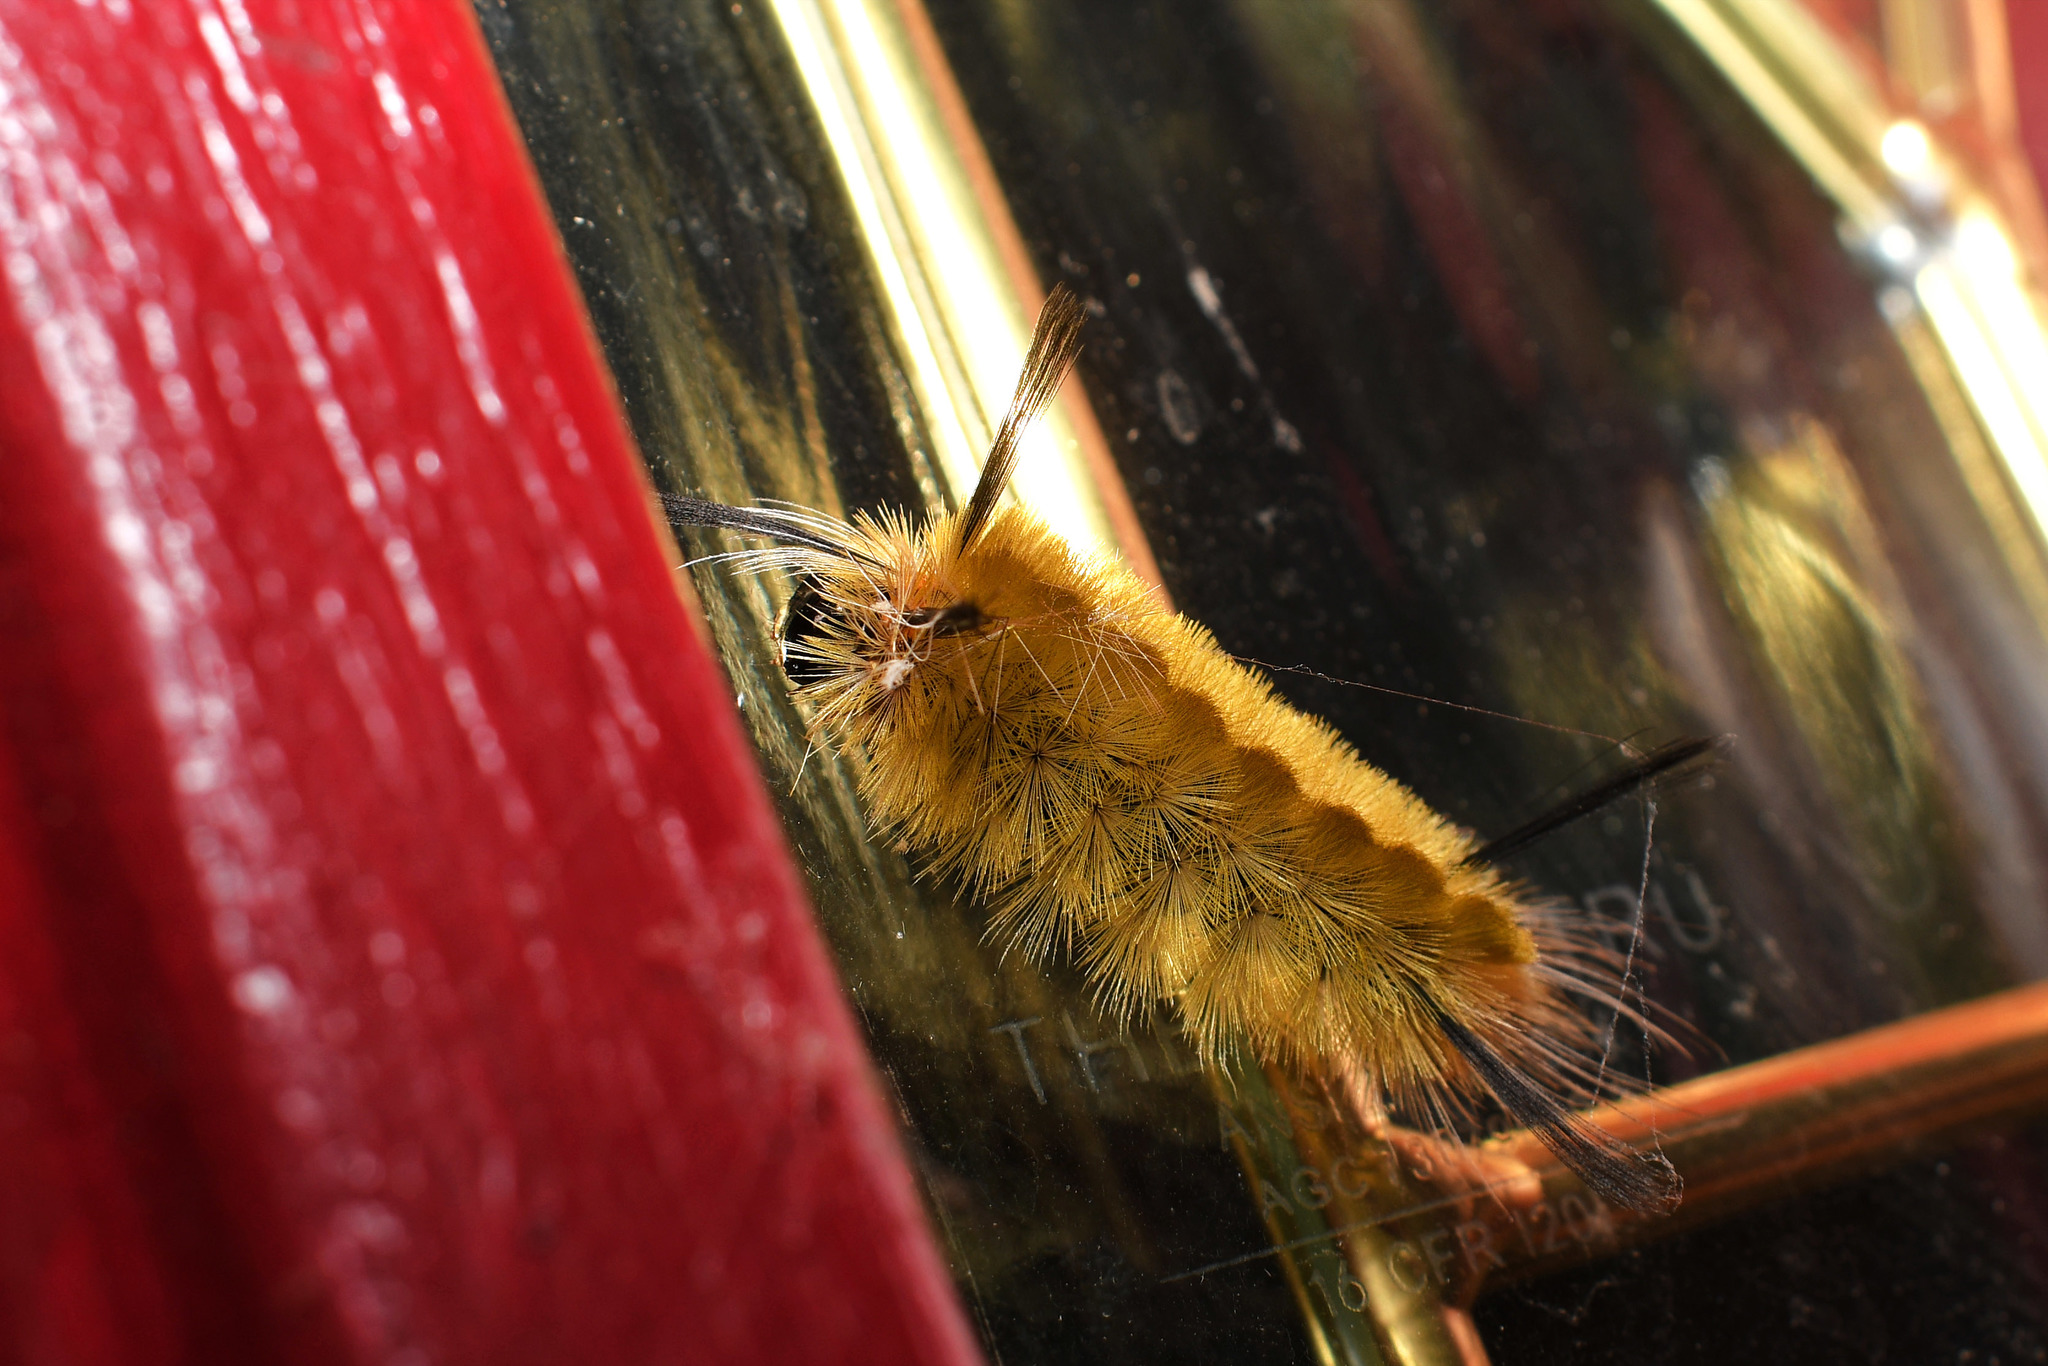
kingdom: Animalia
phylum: Arthropoda
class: Insecta
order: Lepidoptera
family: Erebidae
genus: Halysidota
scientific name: Halysidota tessellaris
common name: Banded tussock moth
